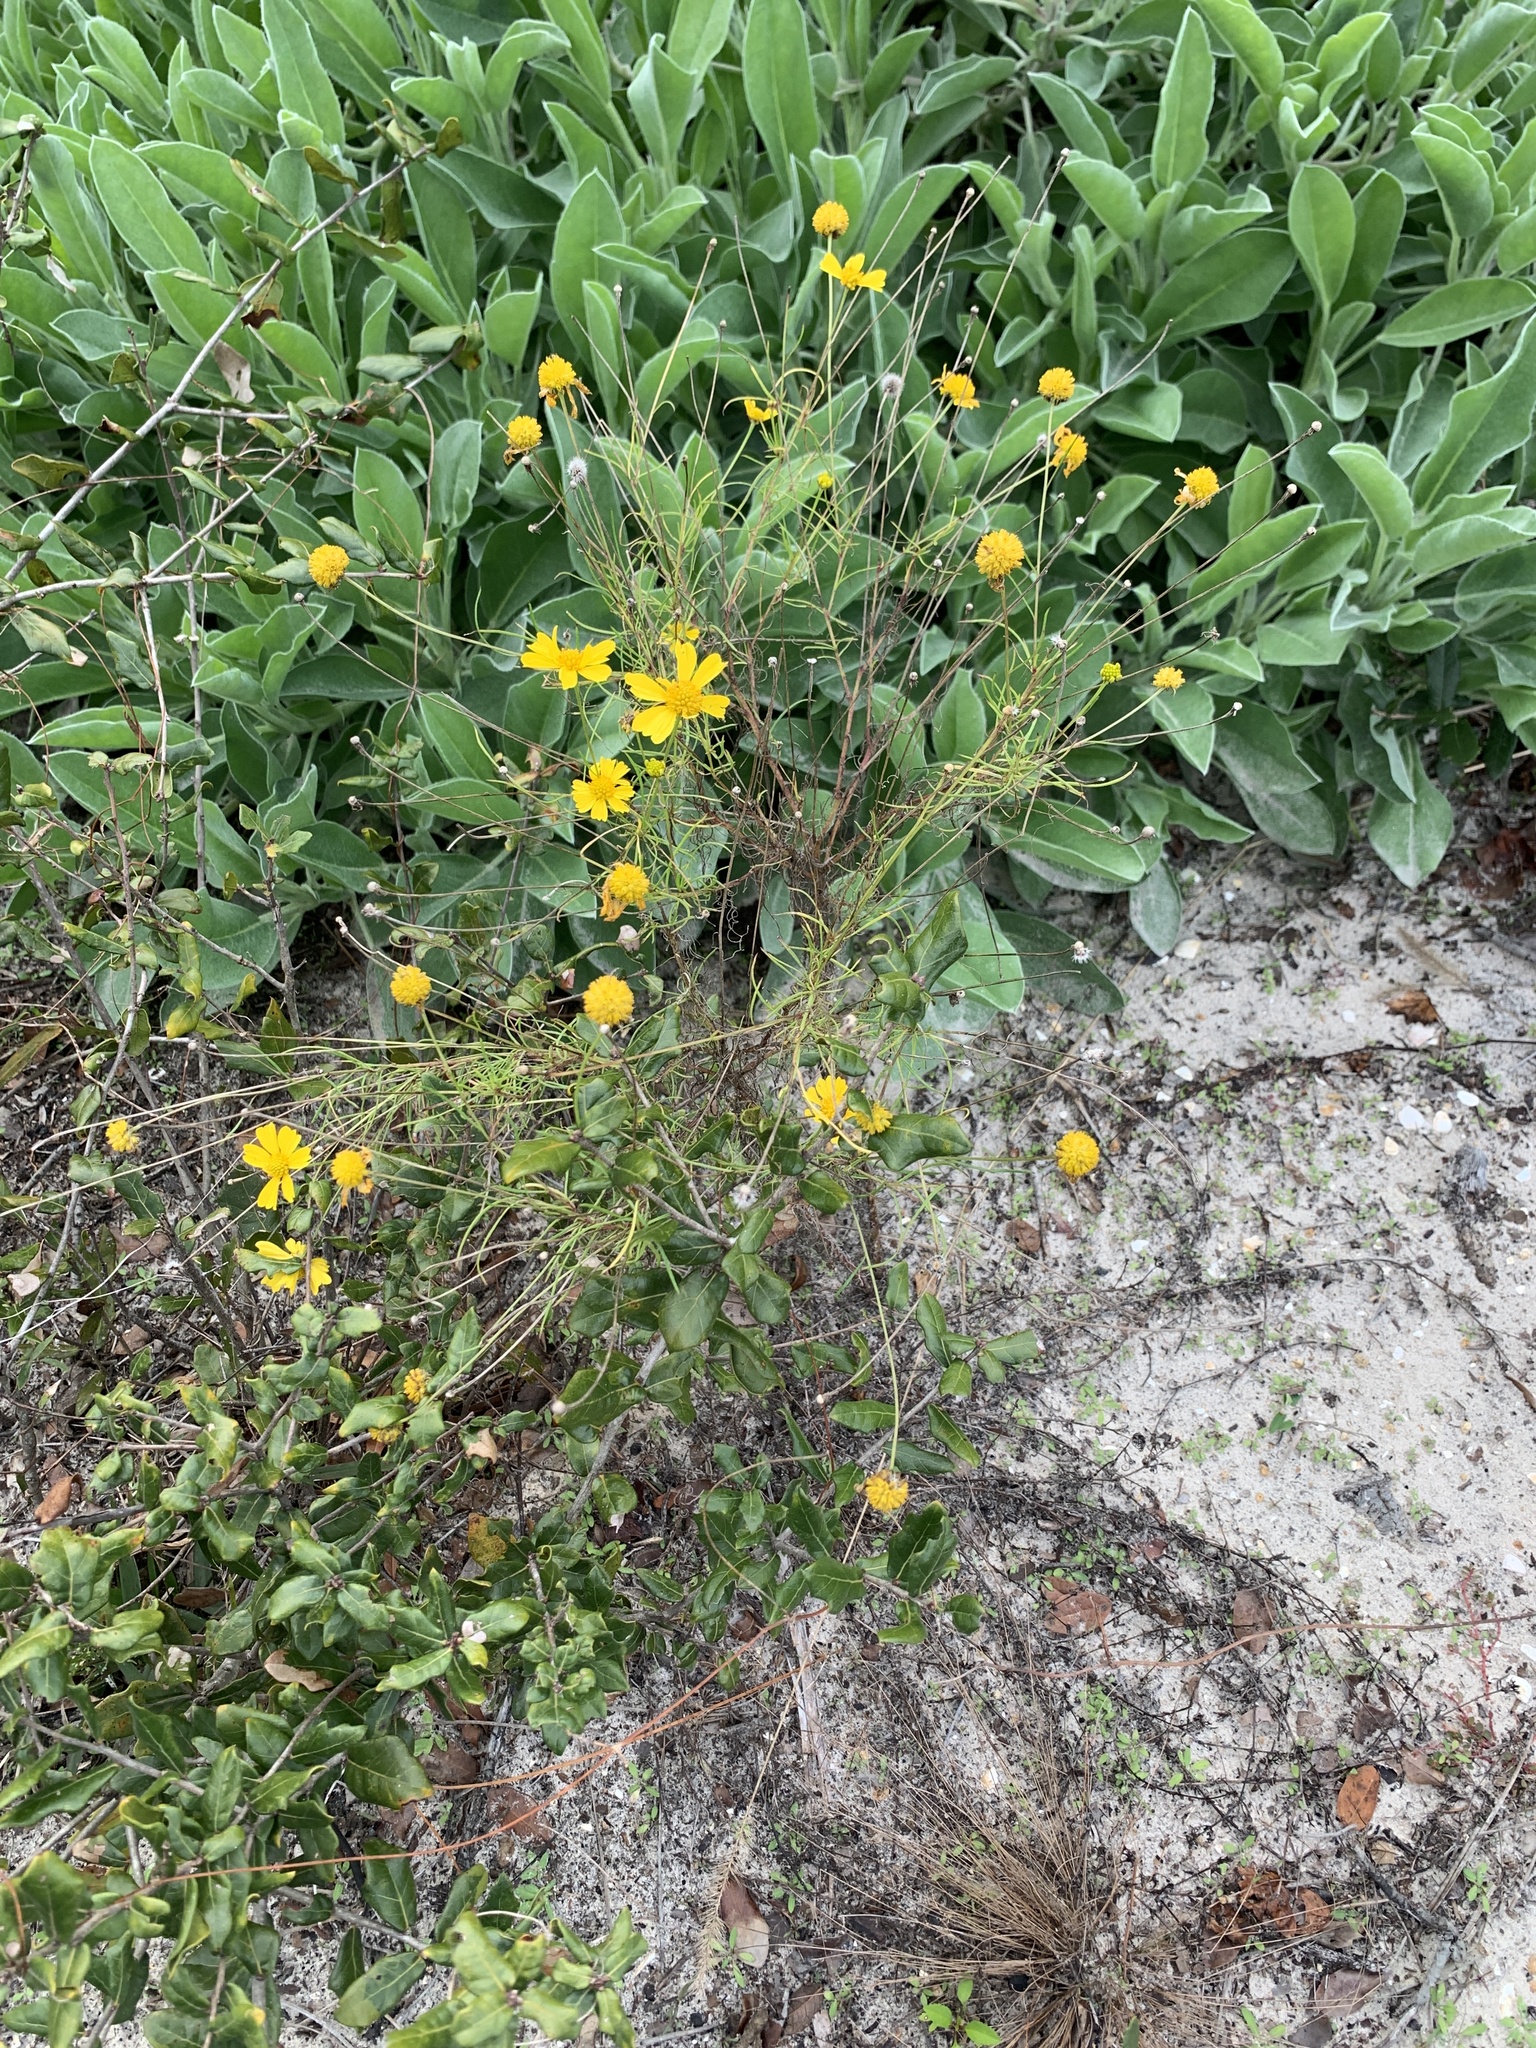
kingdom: Plantae
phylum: Tracheophyta
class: Magnoliopsida
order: Asterales
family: Asteraceae
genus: Helenium
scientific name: Helenium amarum
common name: Bitter sneezeweed
